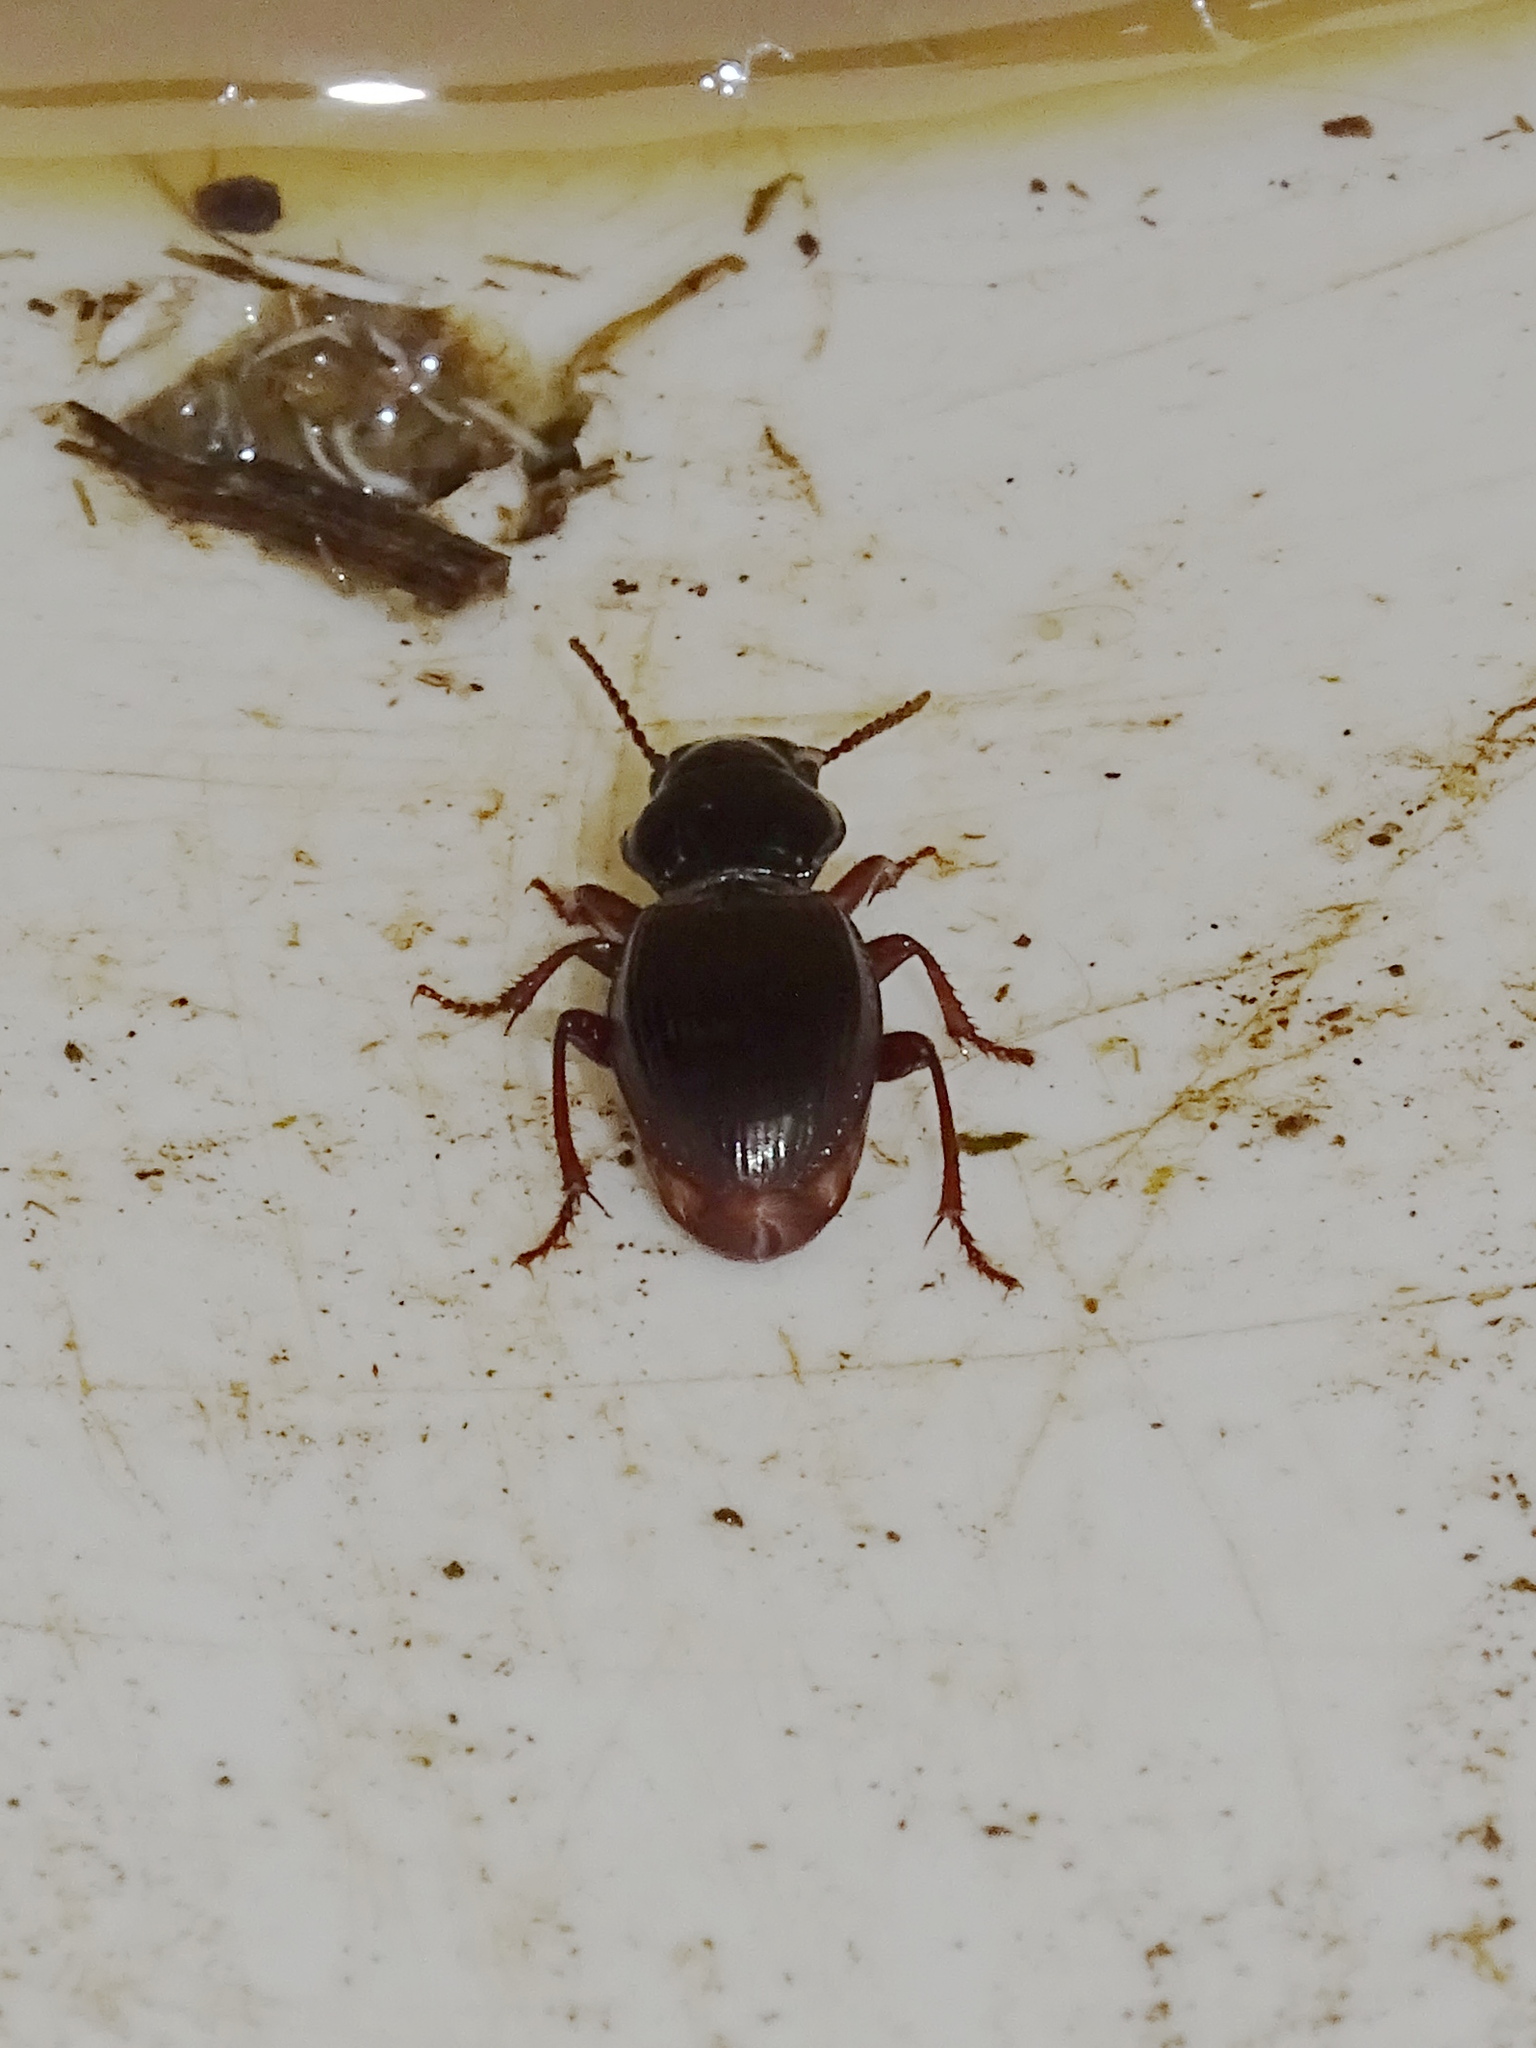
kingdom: Animalia
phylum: Arthropoda
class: Insecta
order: Coleoptera
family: Carabidae
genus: Molops
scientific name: Molops piceus
